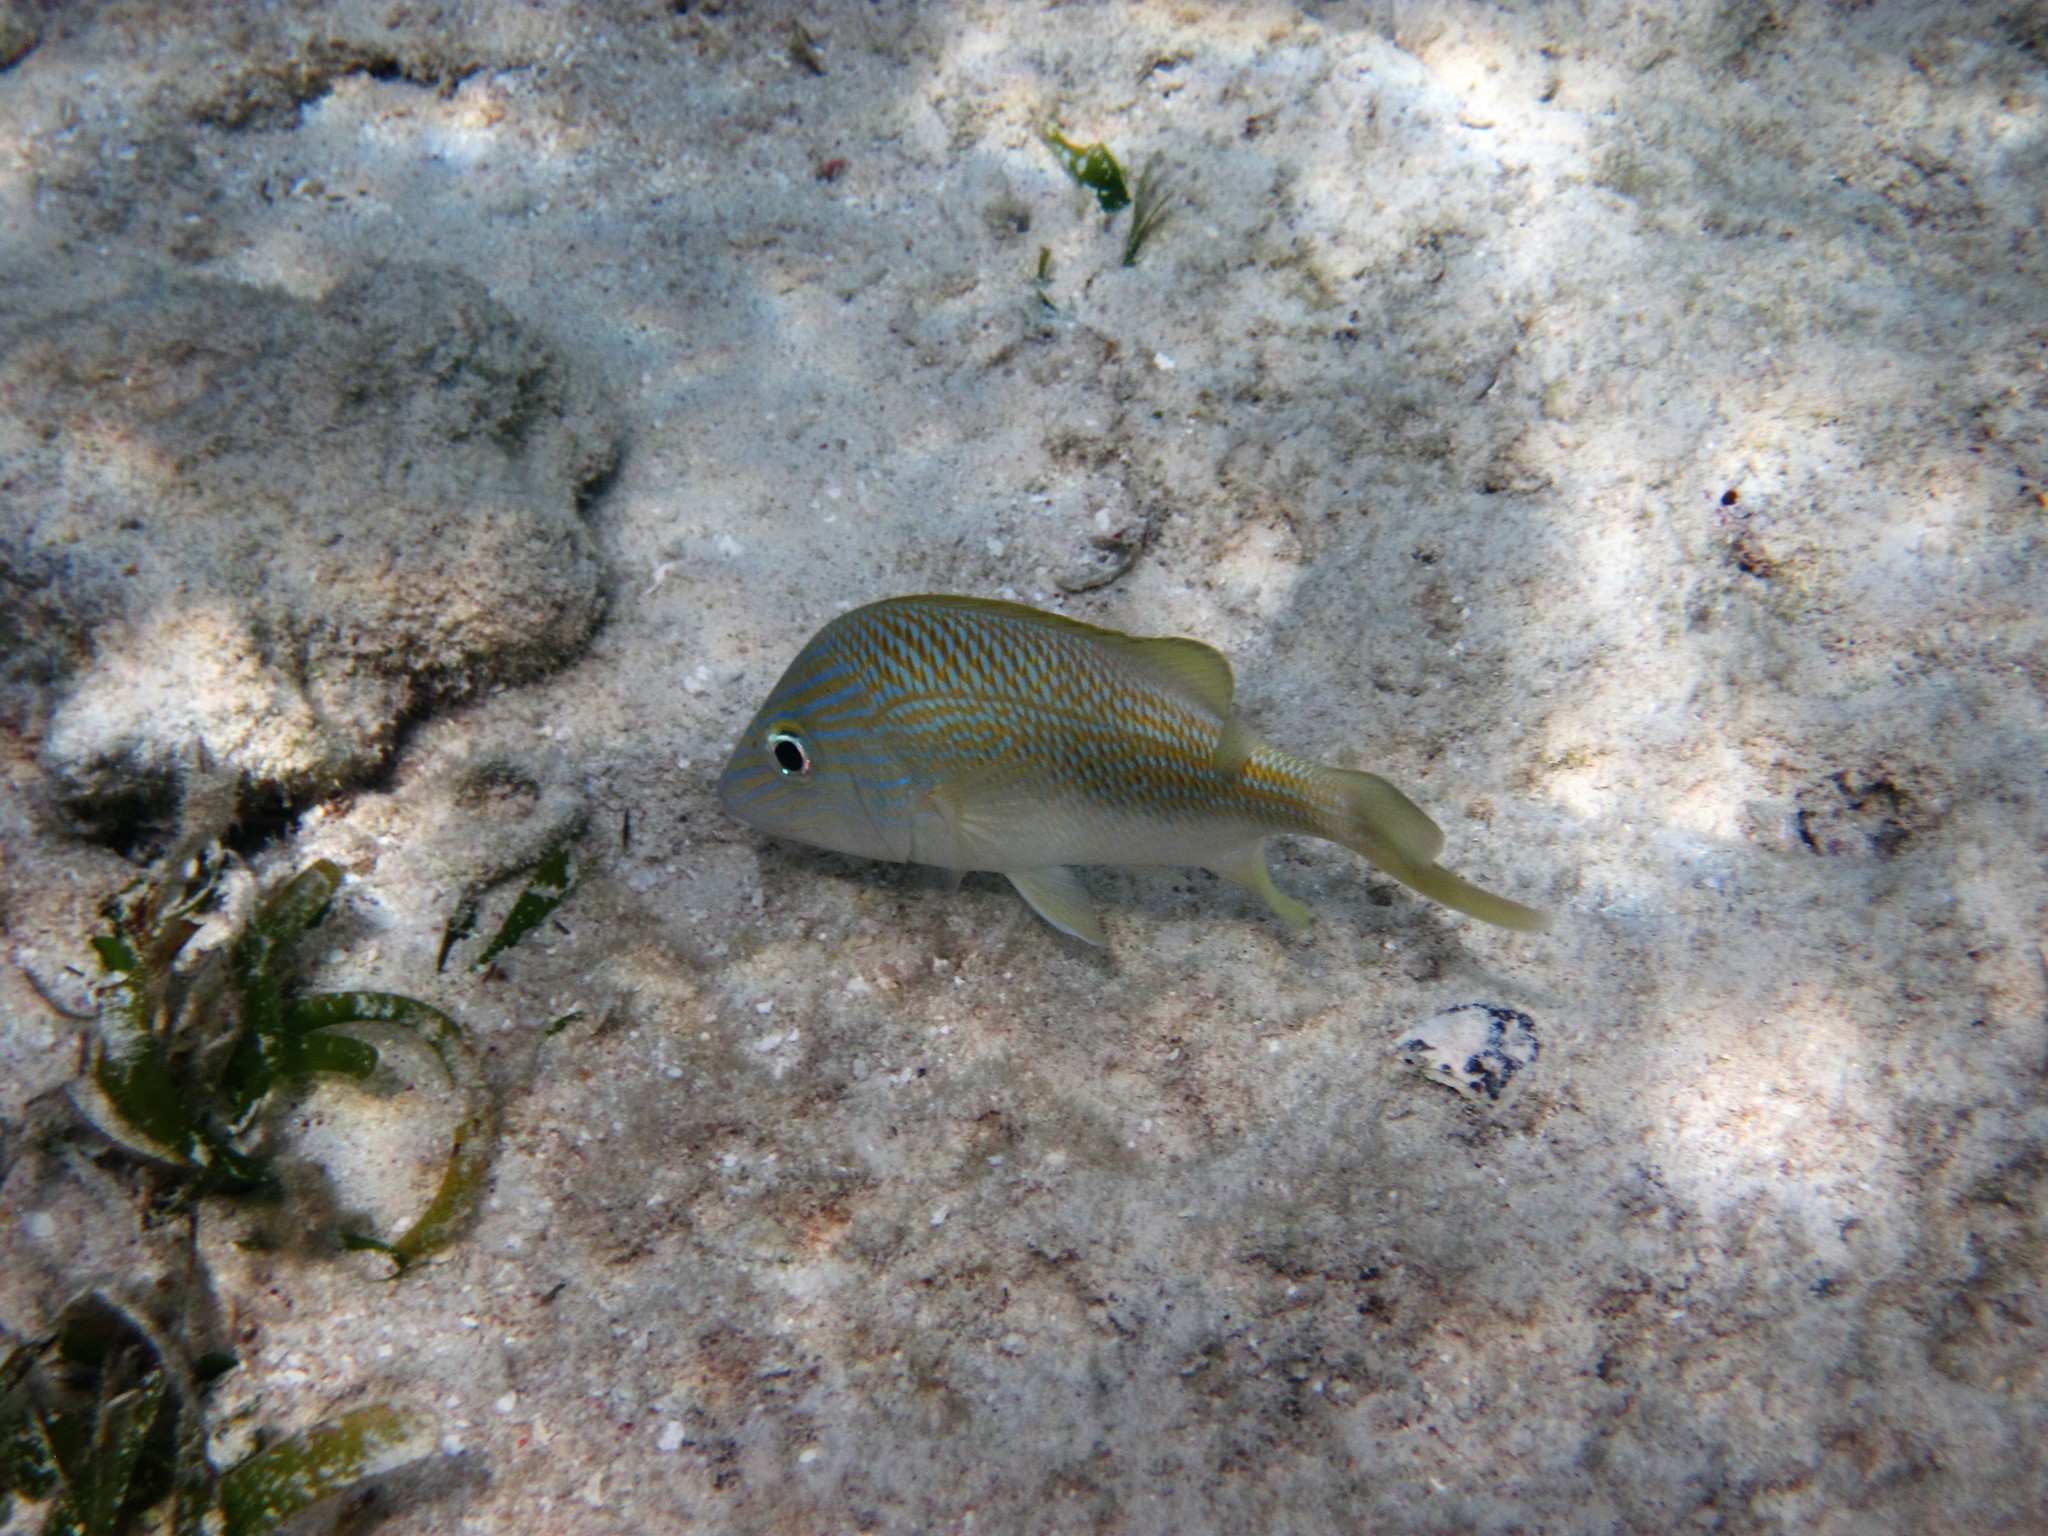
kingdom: Animalia
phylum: Chordata
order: Perciformes
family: Haemulidae
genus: Haemulon
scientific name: Haemulon plumierii
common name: White grunt
